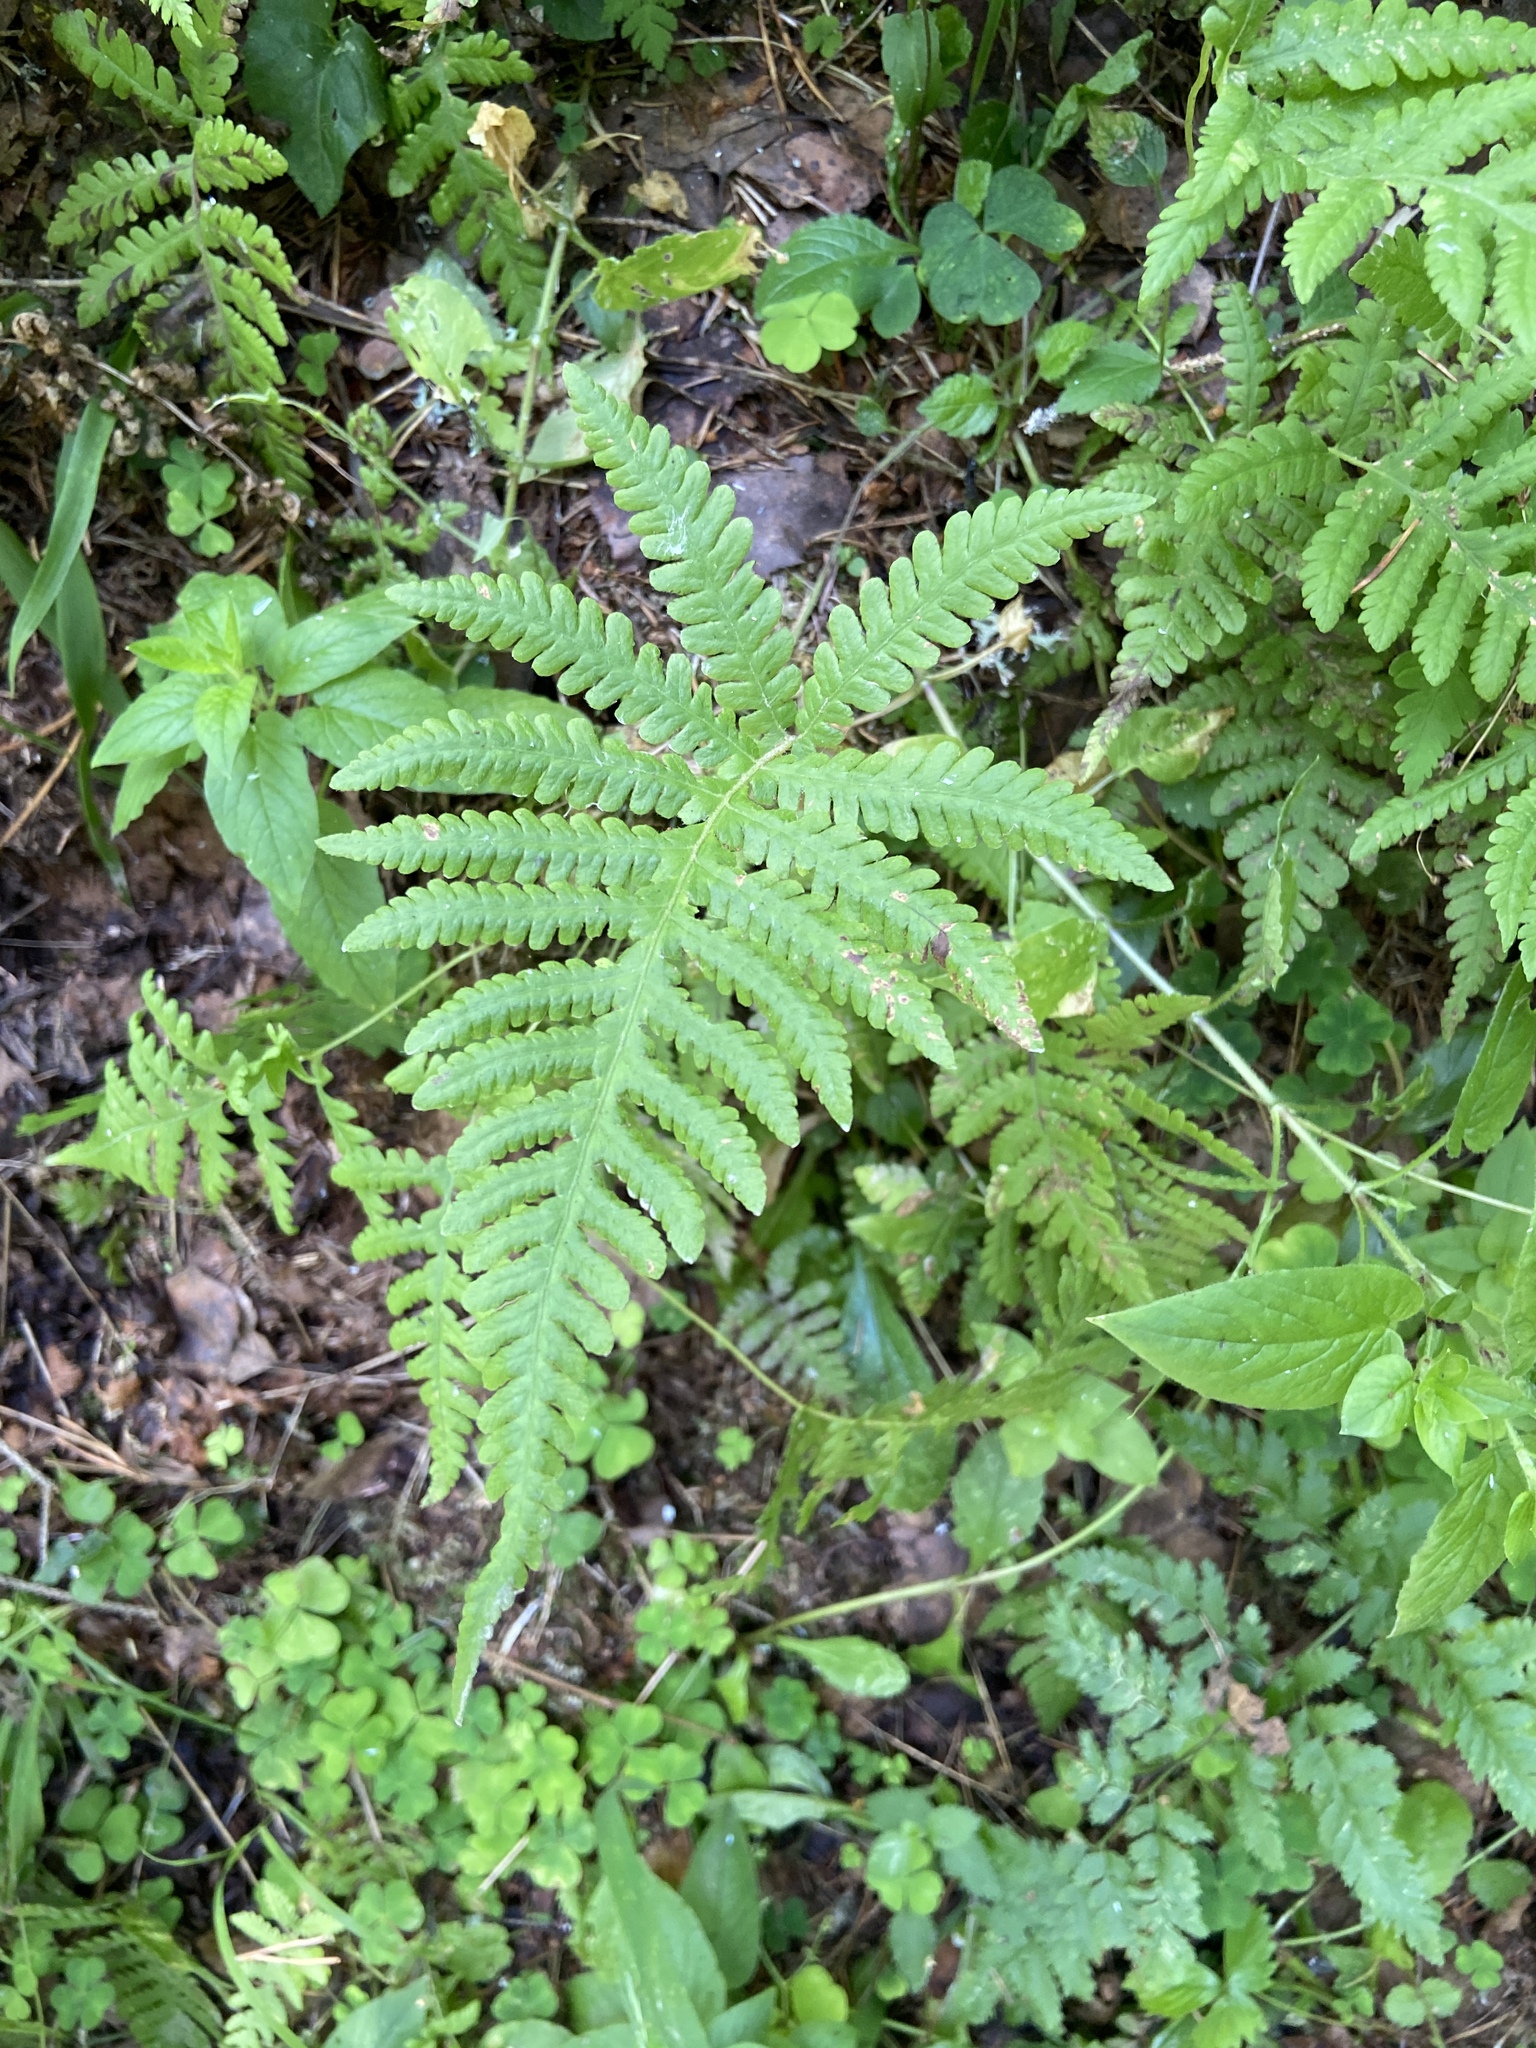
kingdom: Plantae
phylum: Tracheophyta
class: Polypodiopsida
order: Polypodiales
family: Thelypteridaceae
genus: Phegopteris
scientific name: Phegopteris connectilis
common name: Beech fern
